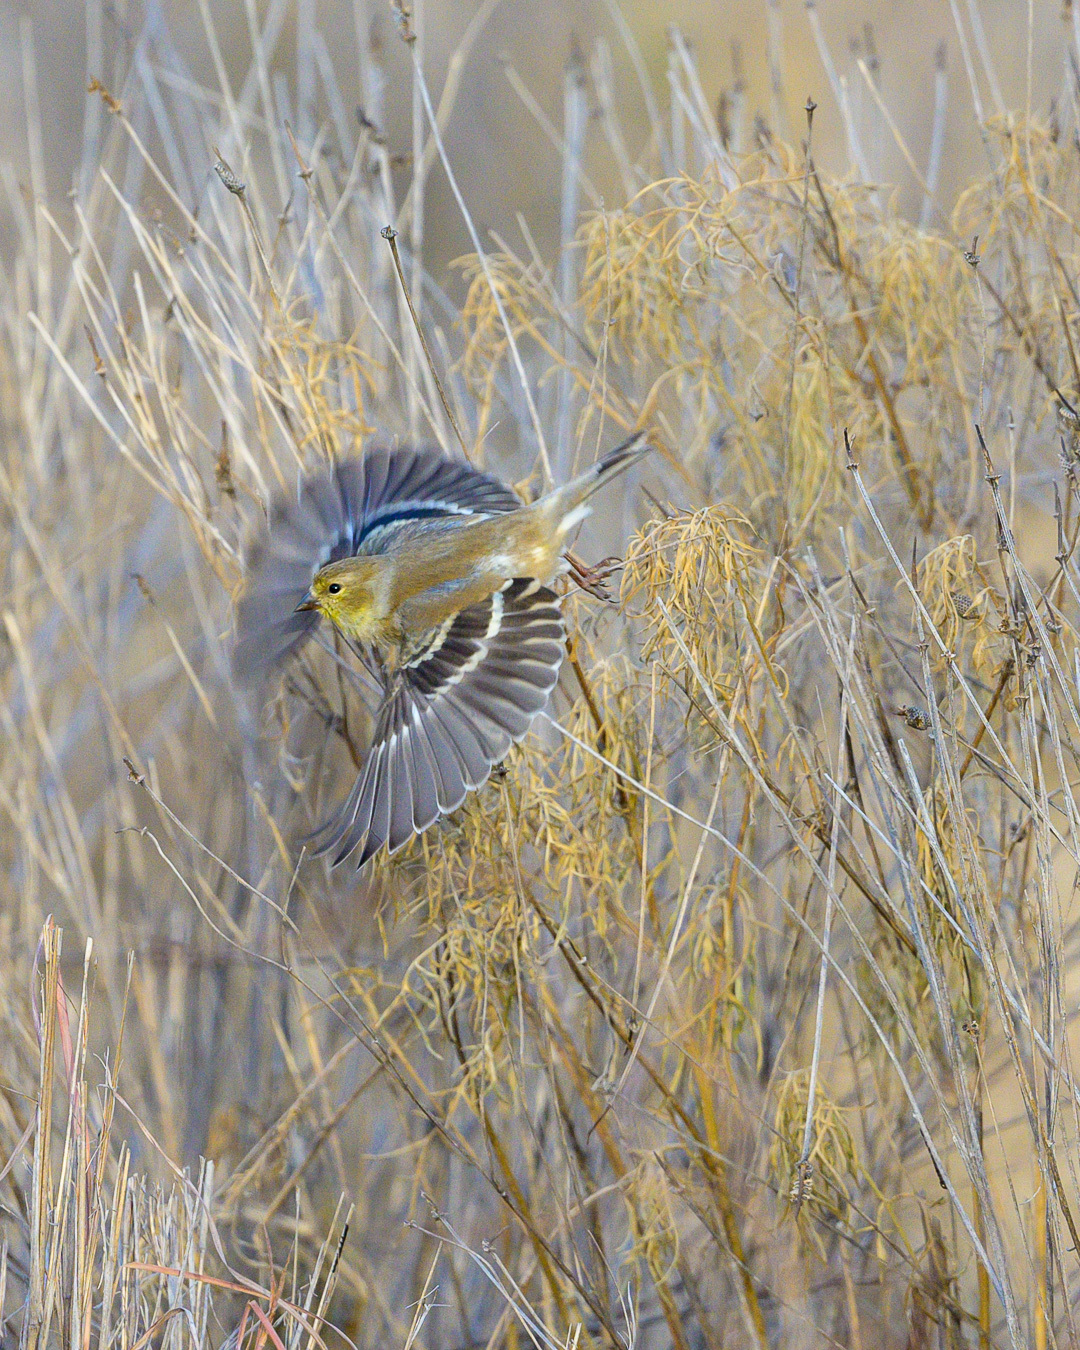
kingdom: Animalia
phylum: Chordata
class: Aves
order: Passeriformes
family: Fringillidae
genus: Spinus
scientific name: Spinus tristis
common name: American goldfinch
